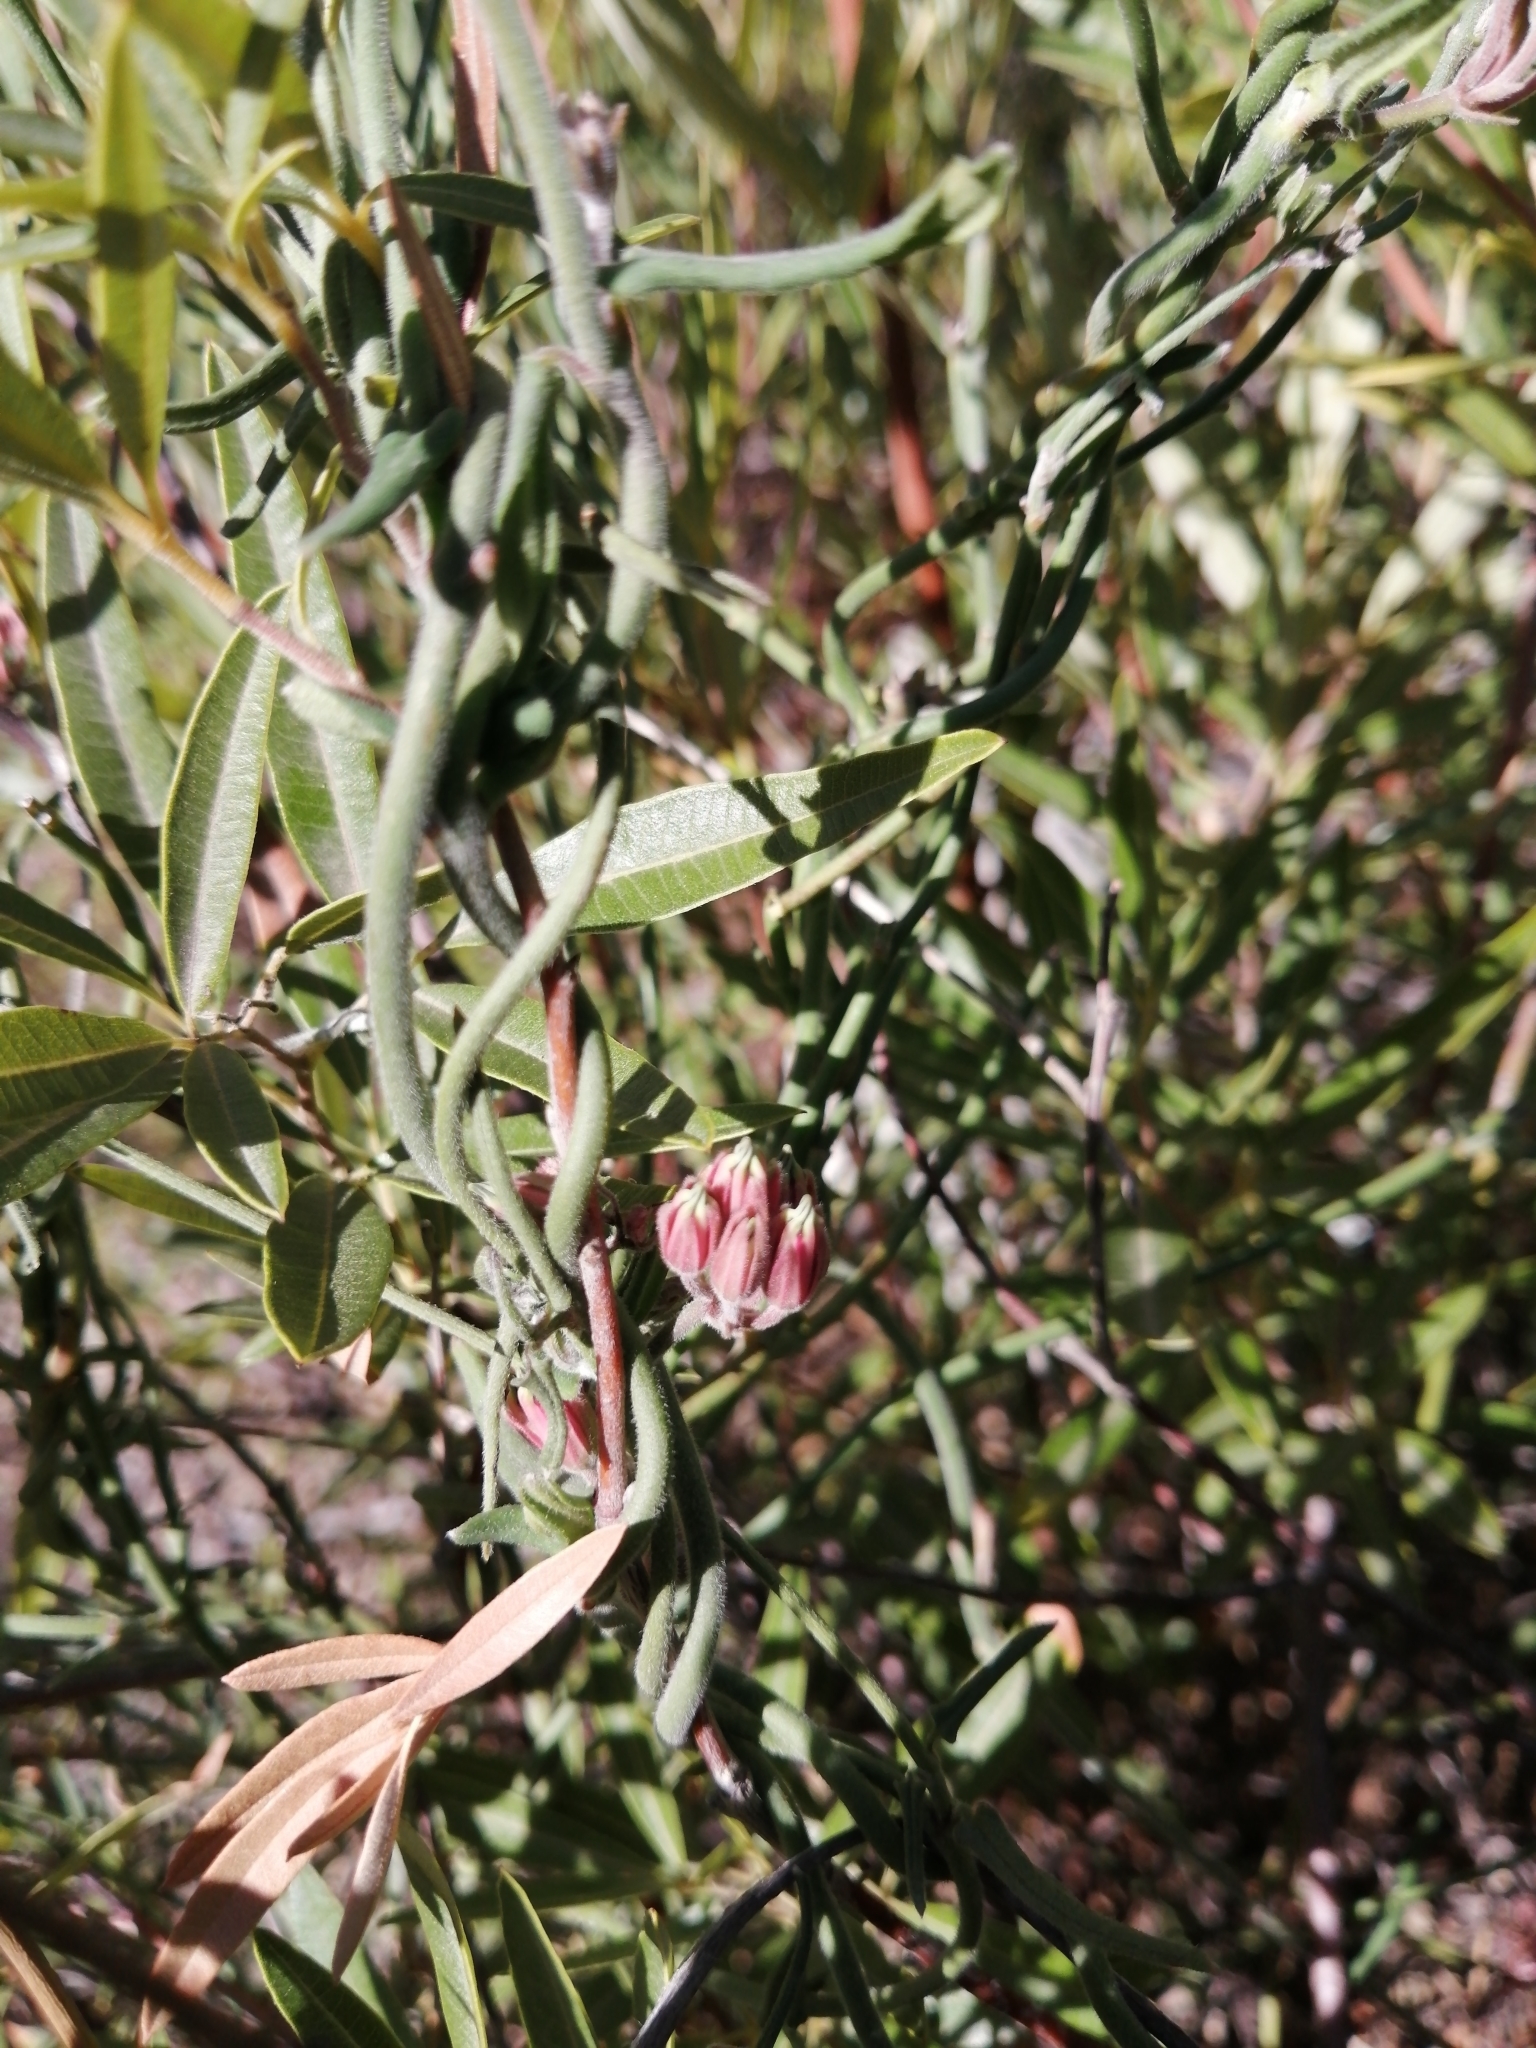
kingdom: Plantae
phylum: Tracheophyta
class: Magnoliopsida
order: Gentianales
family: Apocynaceae
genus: Microloma
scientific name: Microloma sagittatum
